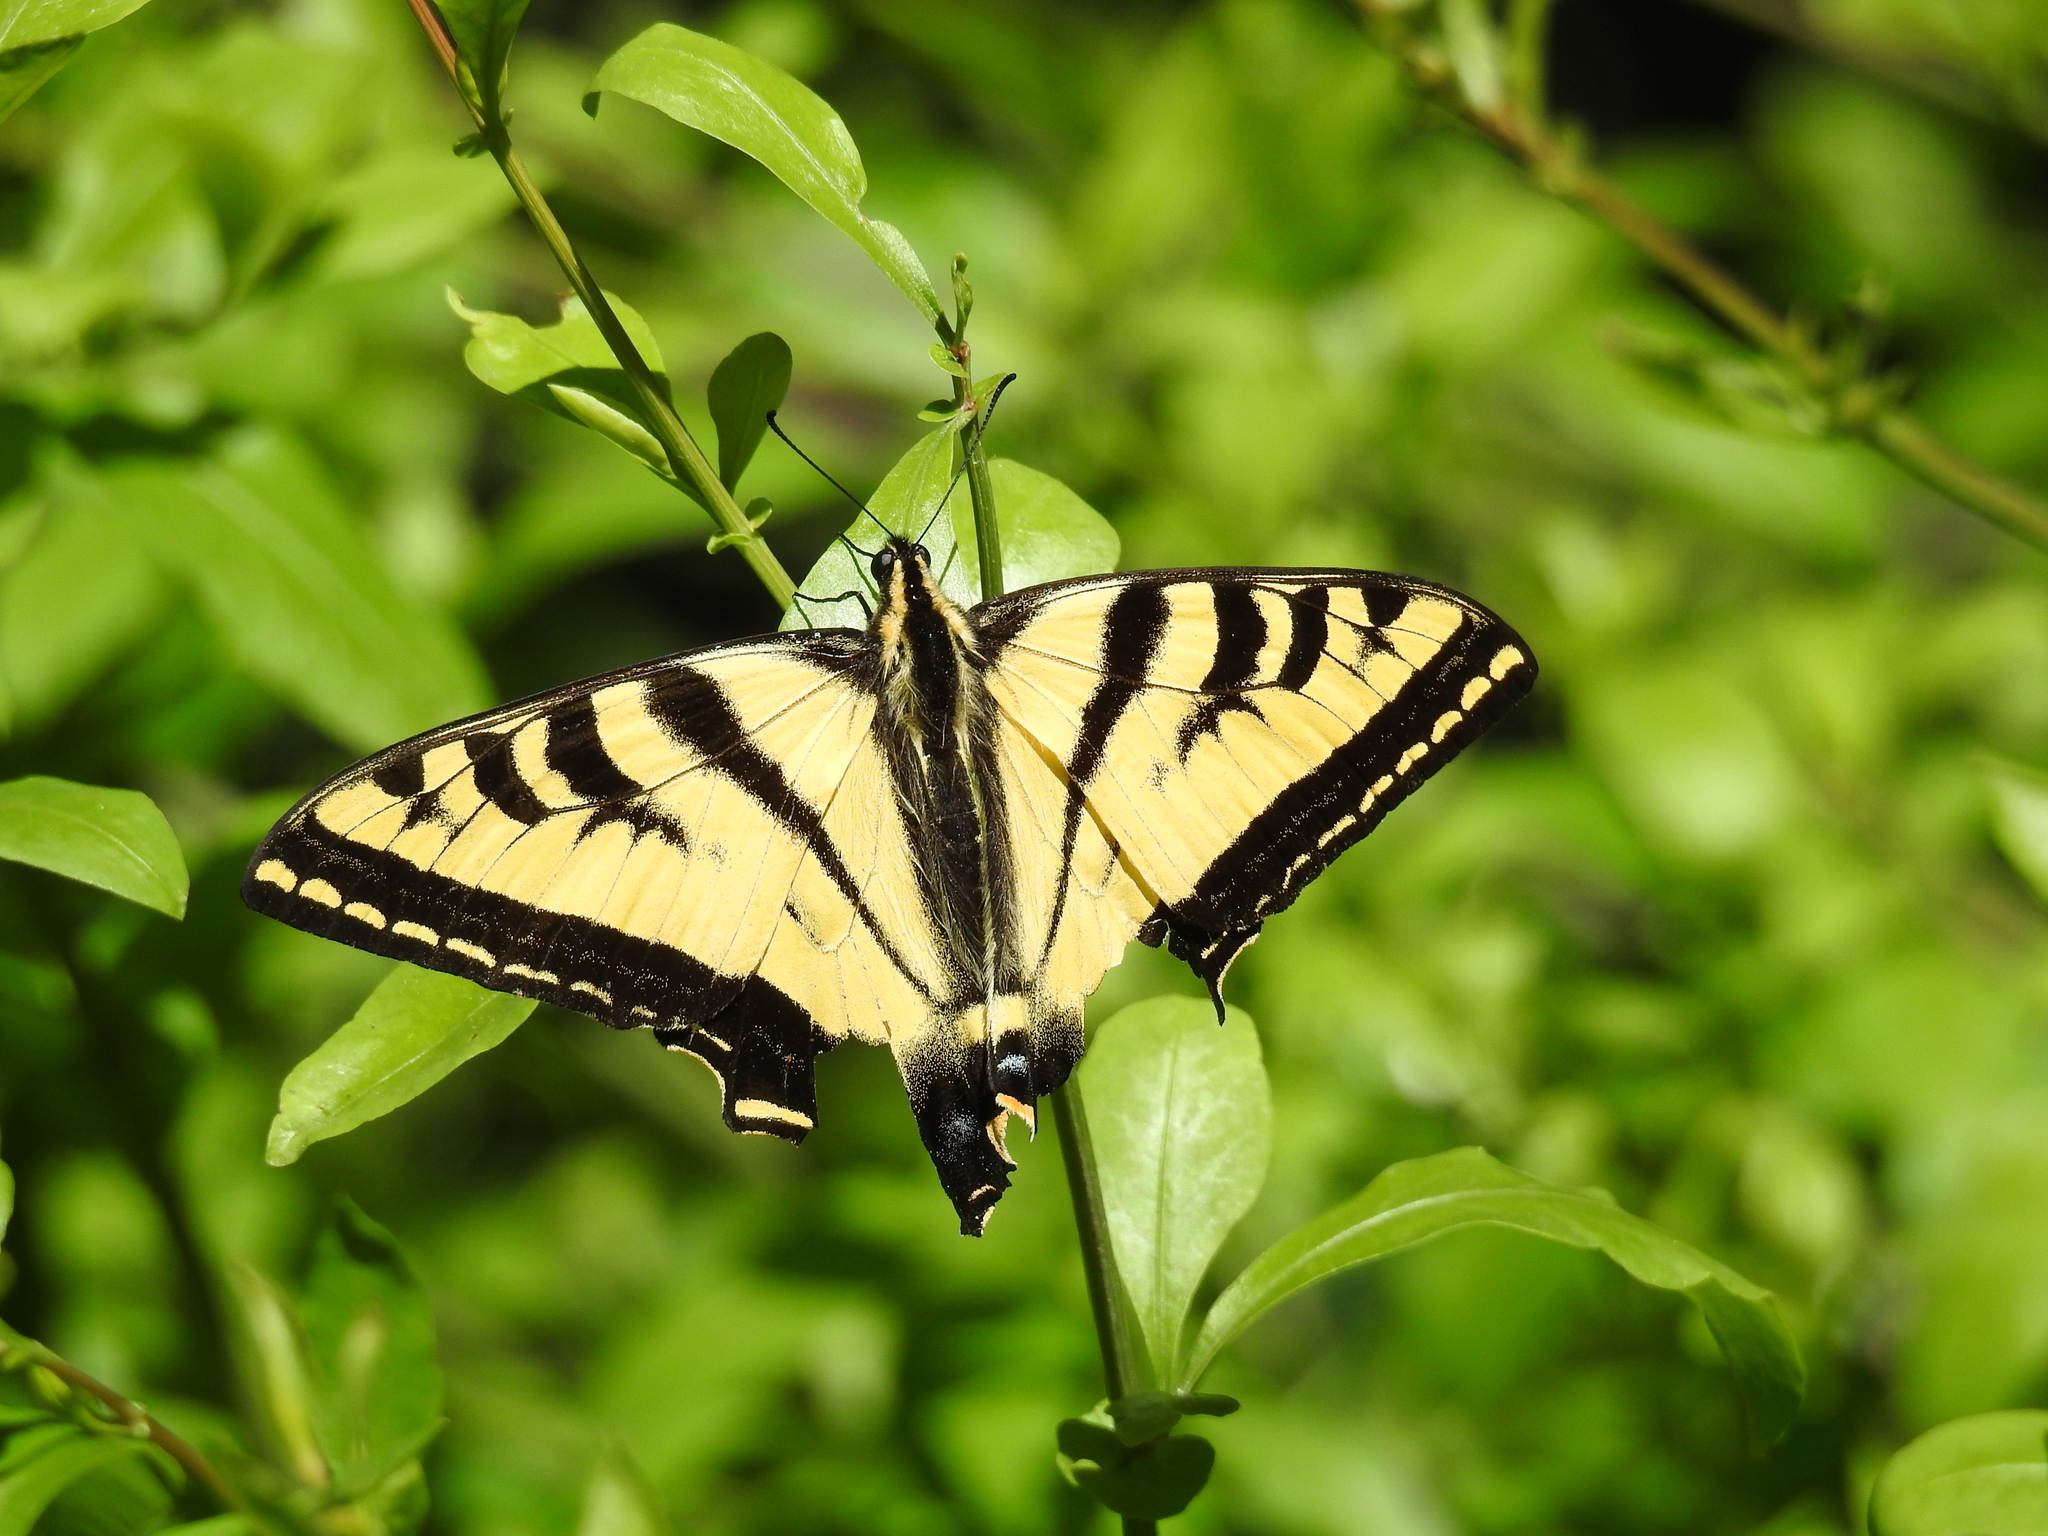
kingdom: Animalia
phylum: Arthropoda
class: Insecta
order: Lepidoptera
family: Papilionidae
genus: Papilio
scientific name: Papilio rutulus
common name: Western tiger swallowtail
